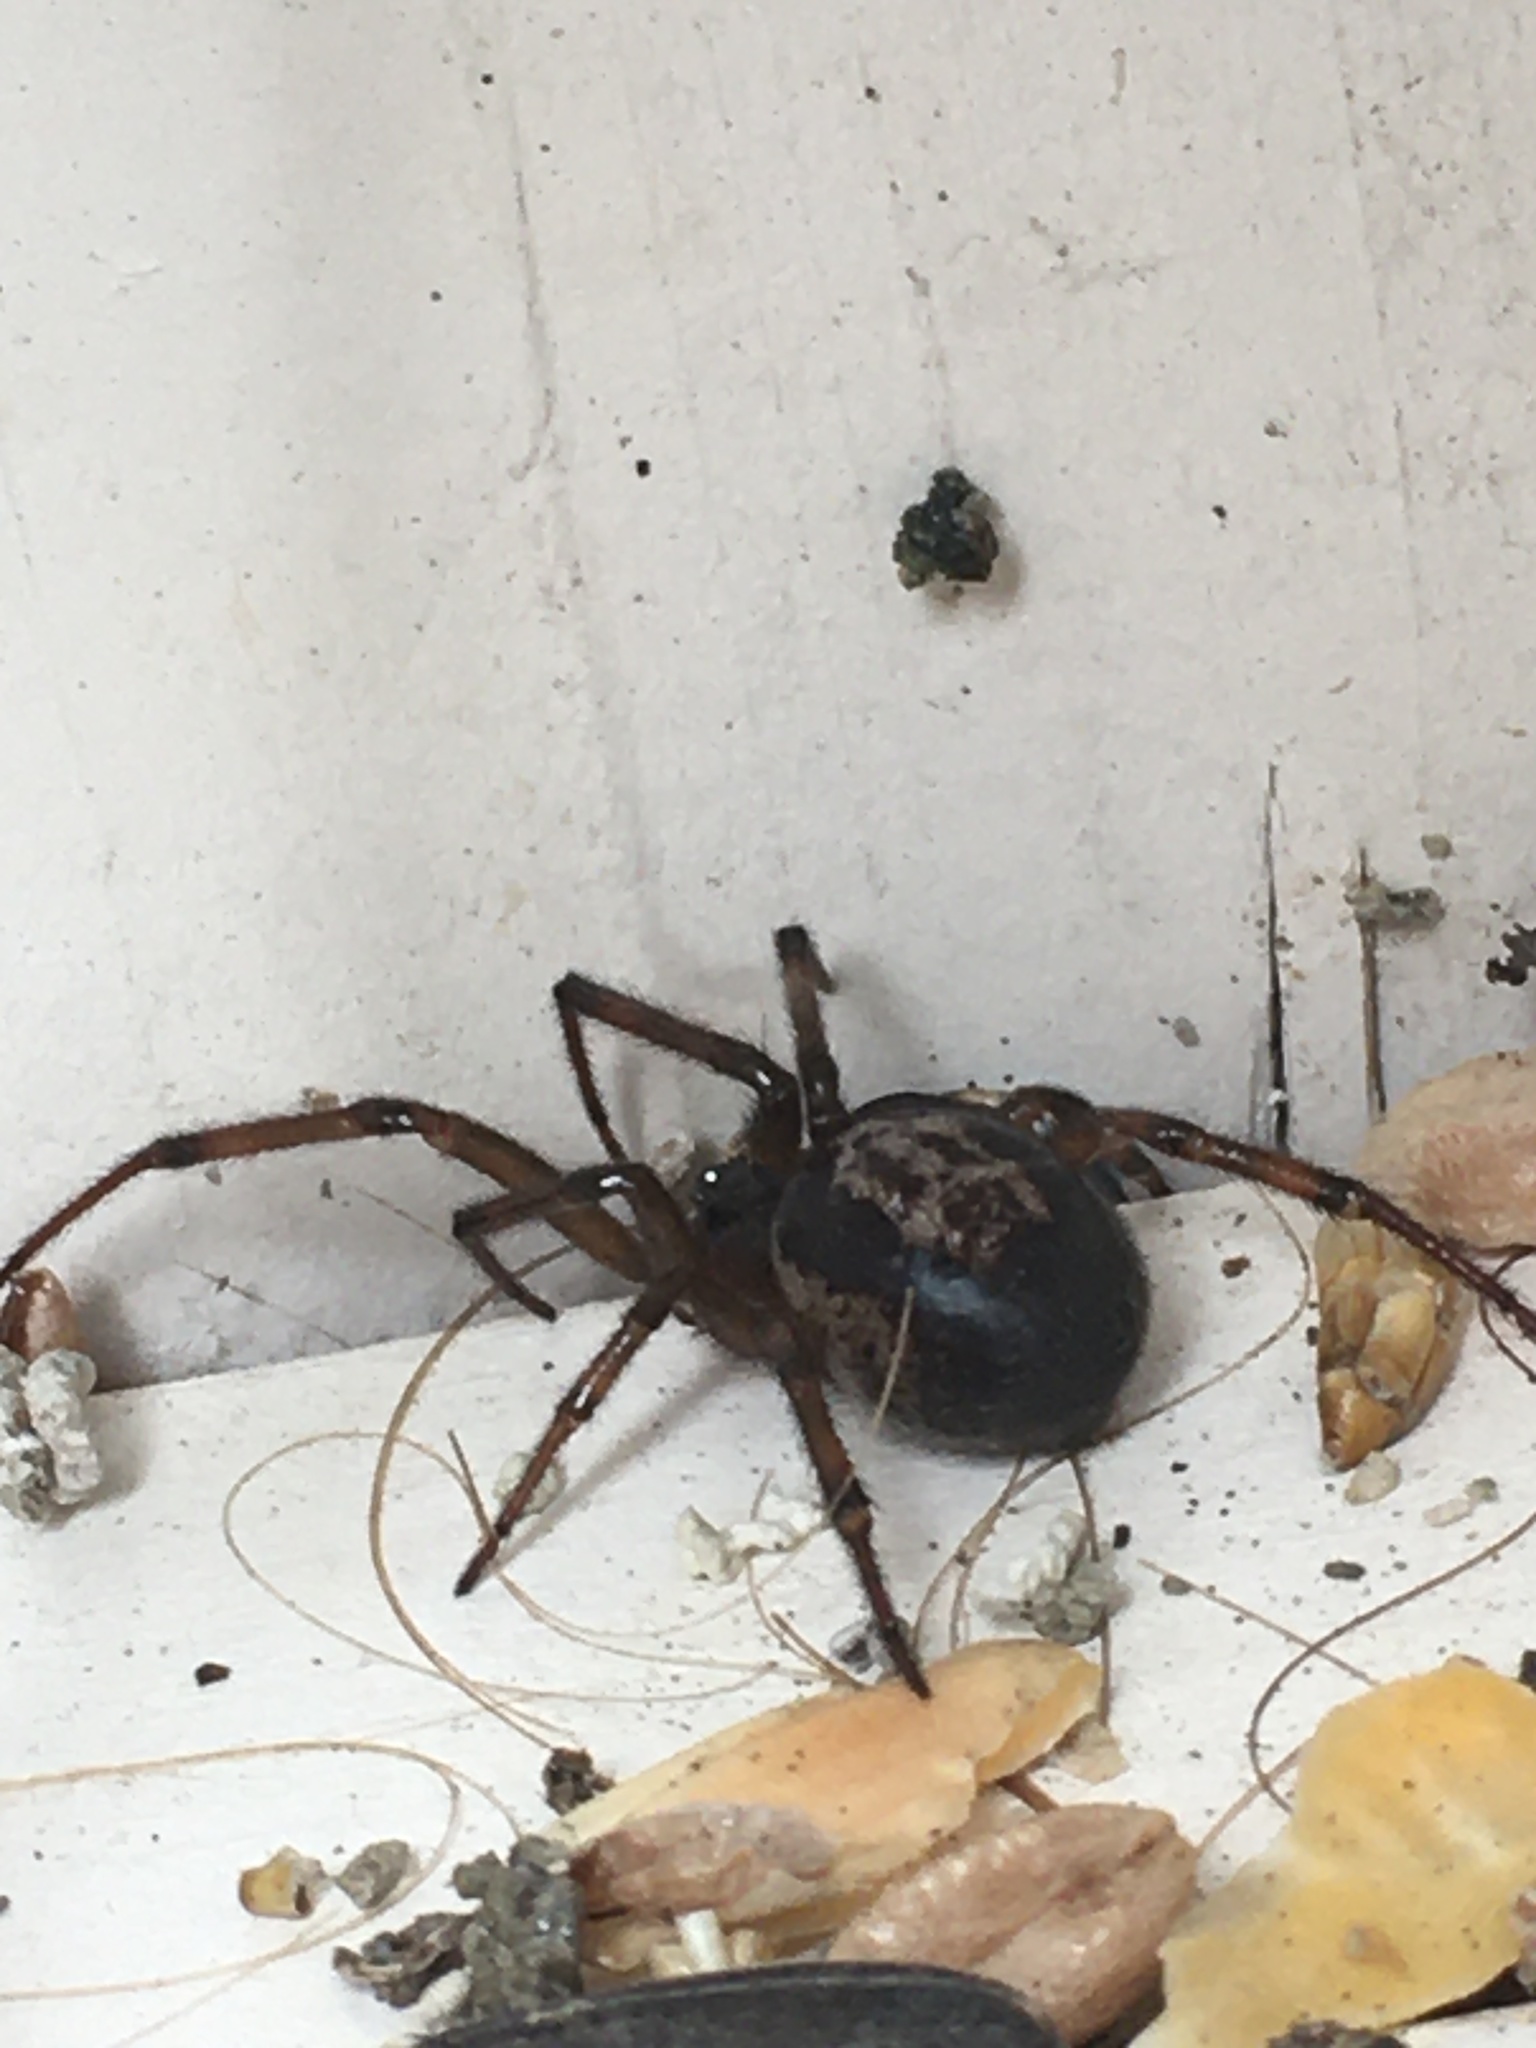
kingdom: Animalia
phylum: Arthropoda
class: Arachnida
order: Araneae
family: Theridiidae
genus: Steatoda
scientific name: Steatoda nobilis
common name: Cobweb weaver
